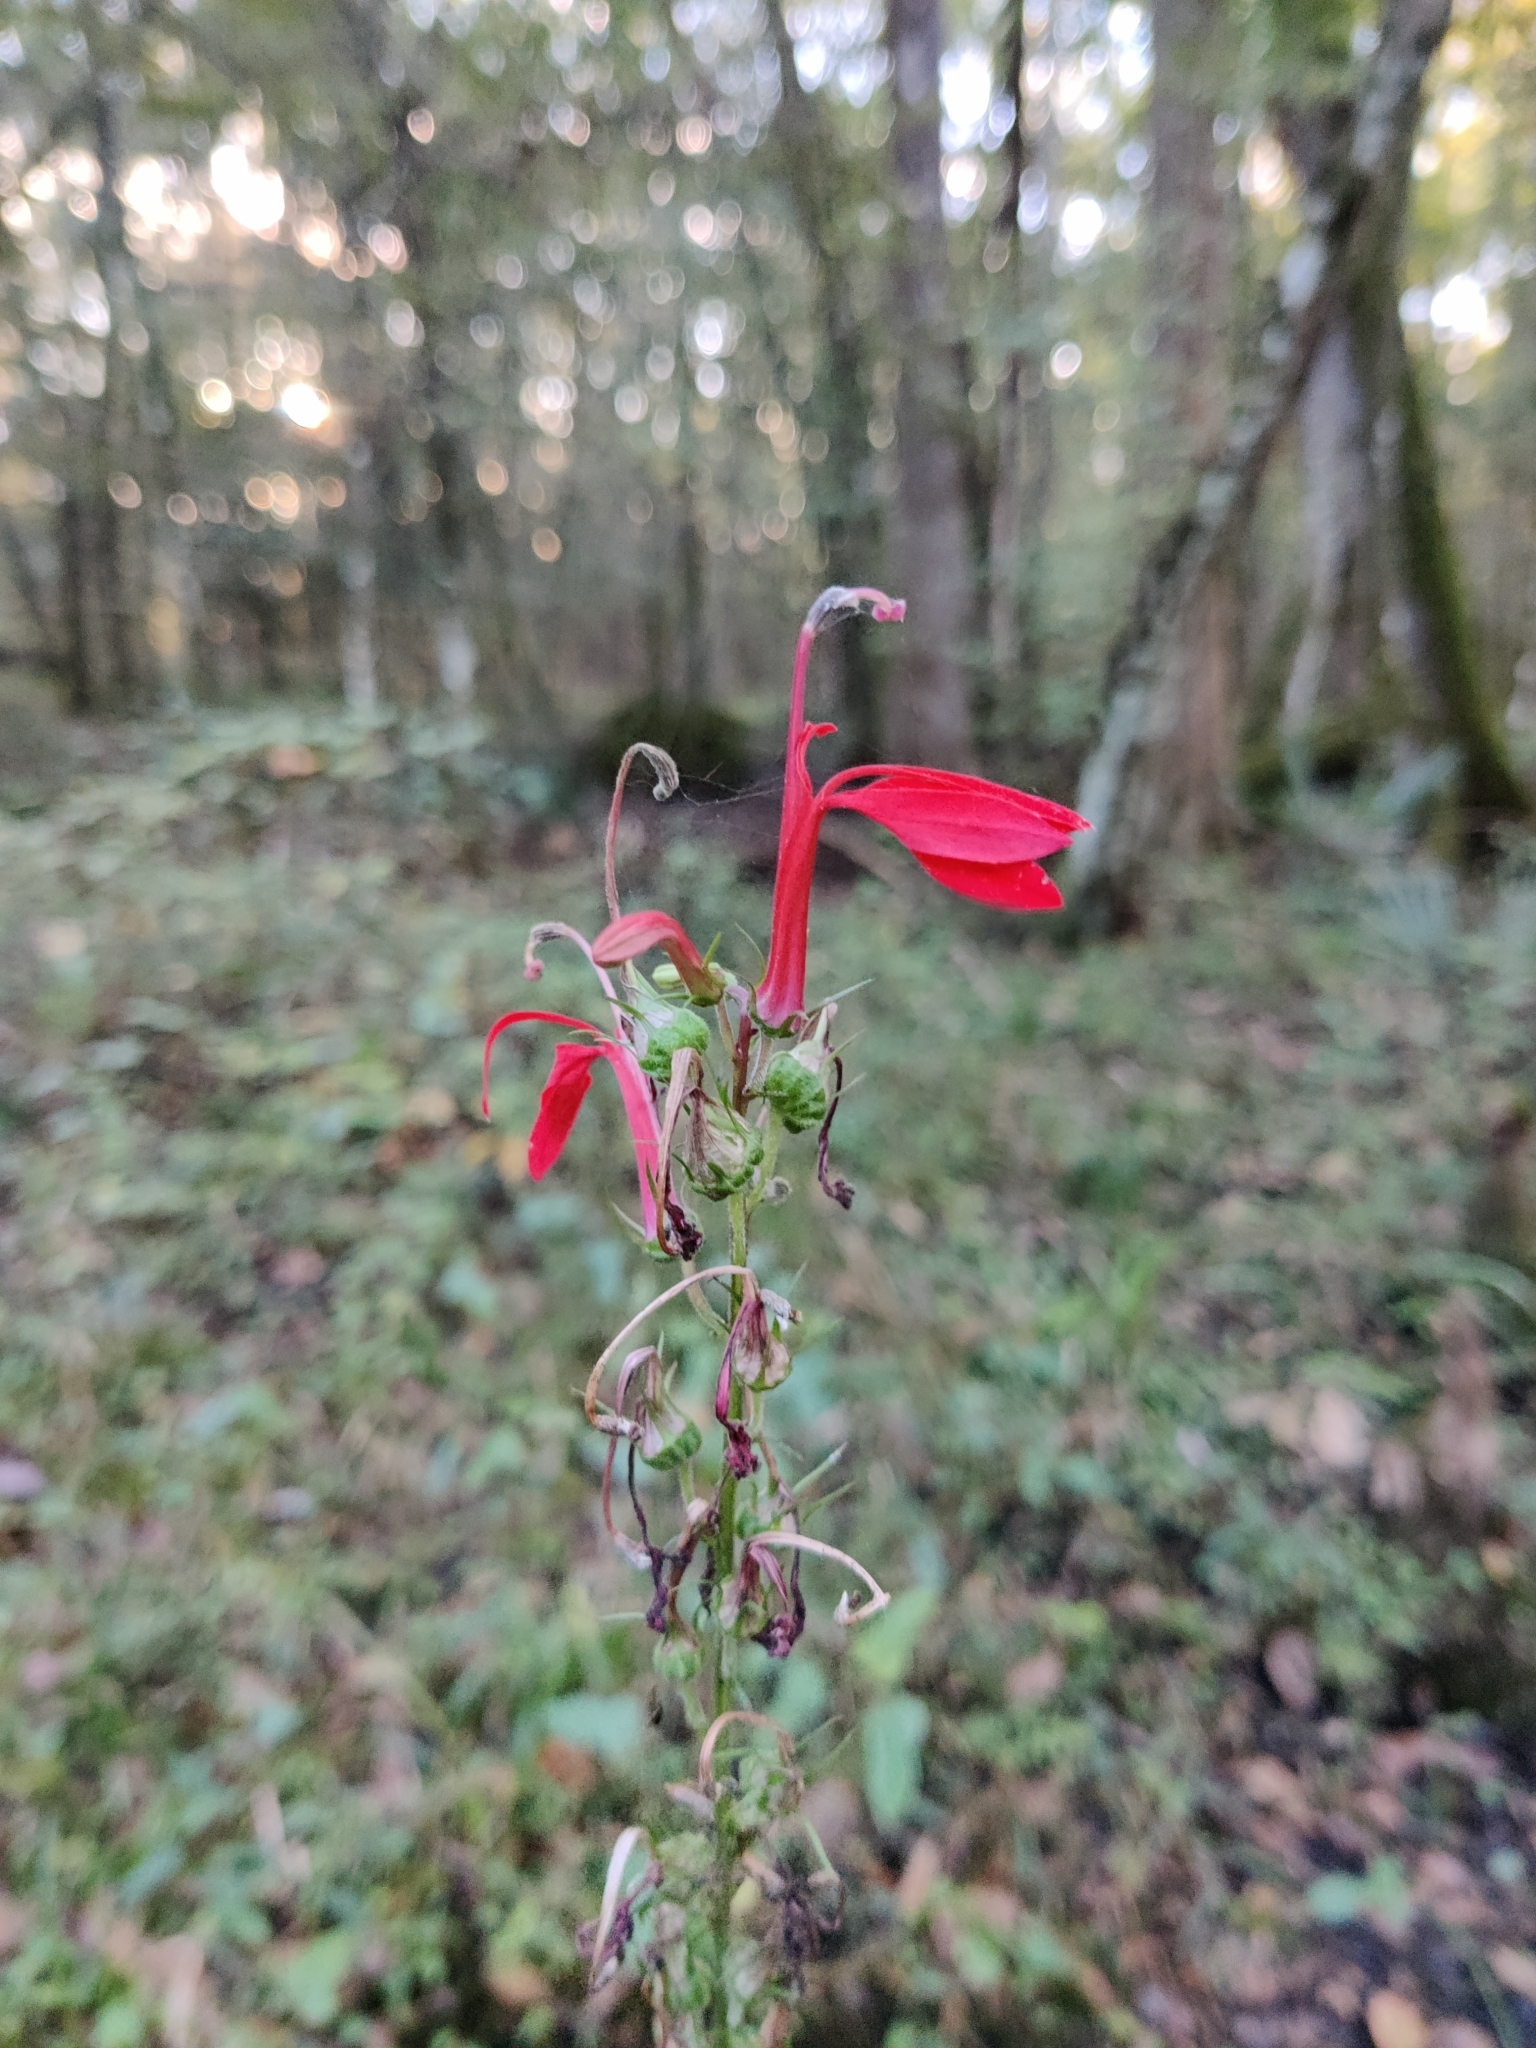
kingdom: Plantae
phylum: Tracheophyta
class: Magnoliopsida
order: Asterales
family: Campanulaceae
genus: Lobelia
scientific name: Lobelia cardinalis
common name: Cardinal flower
